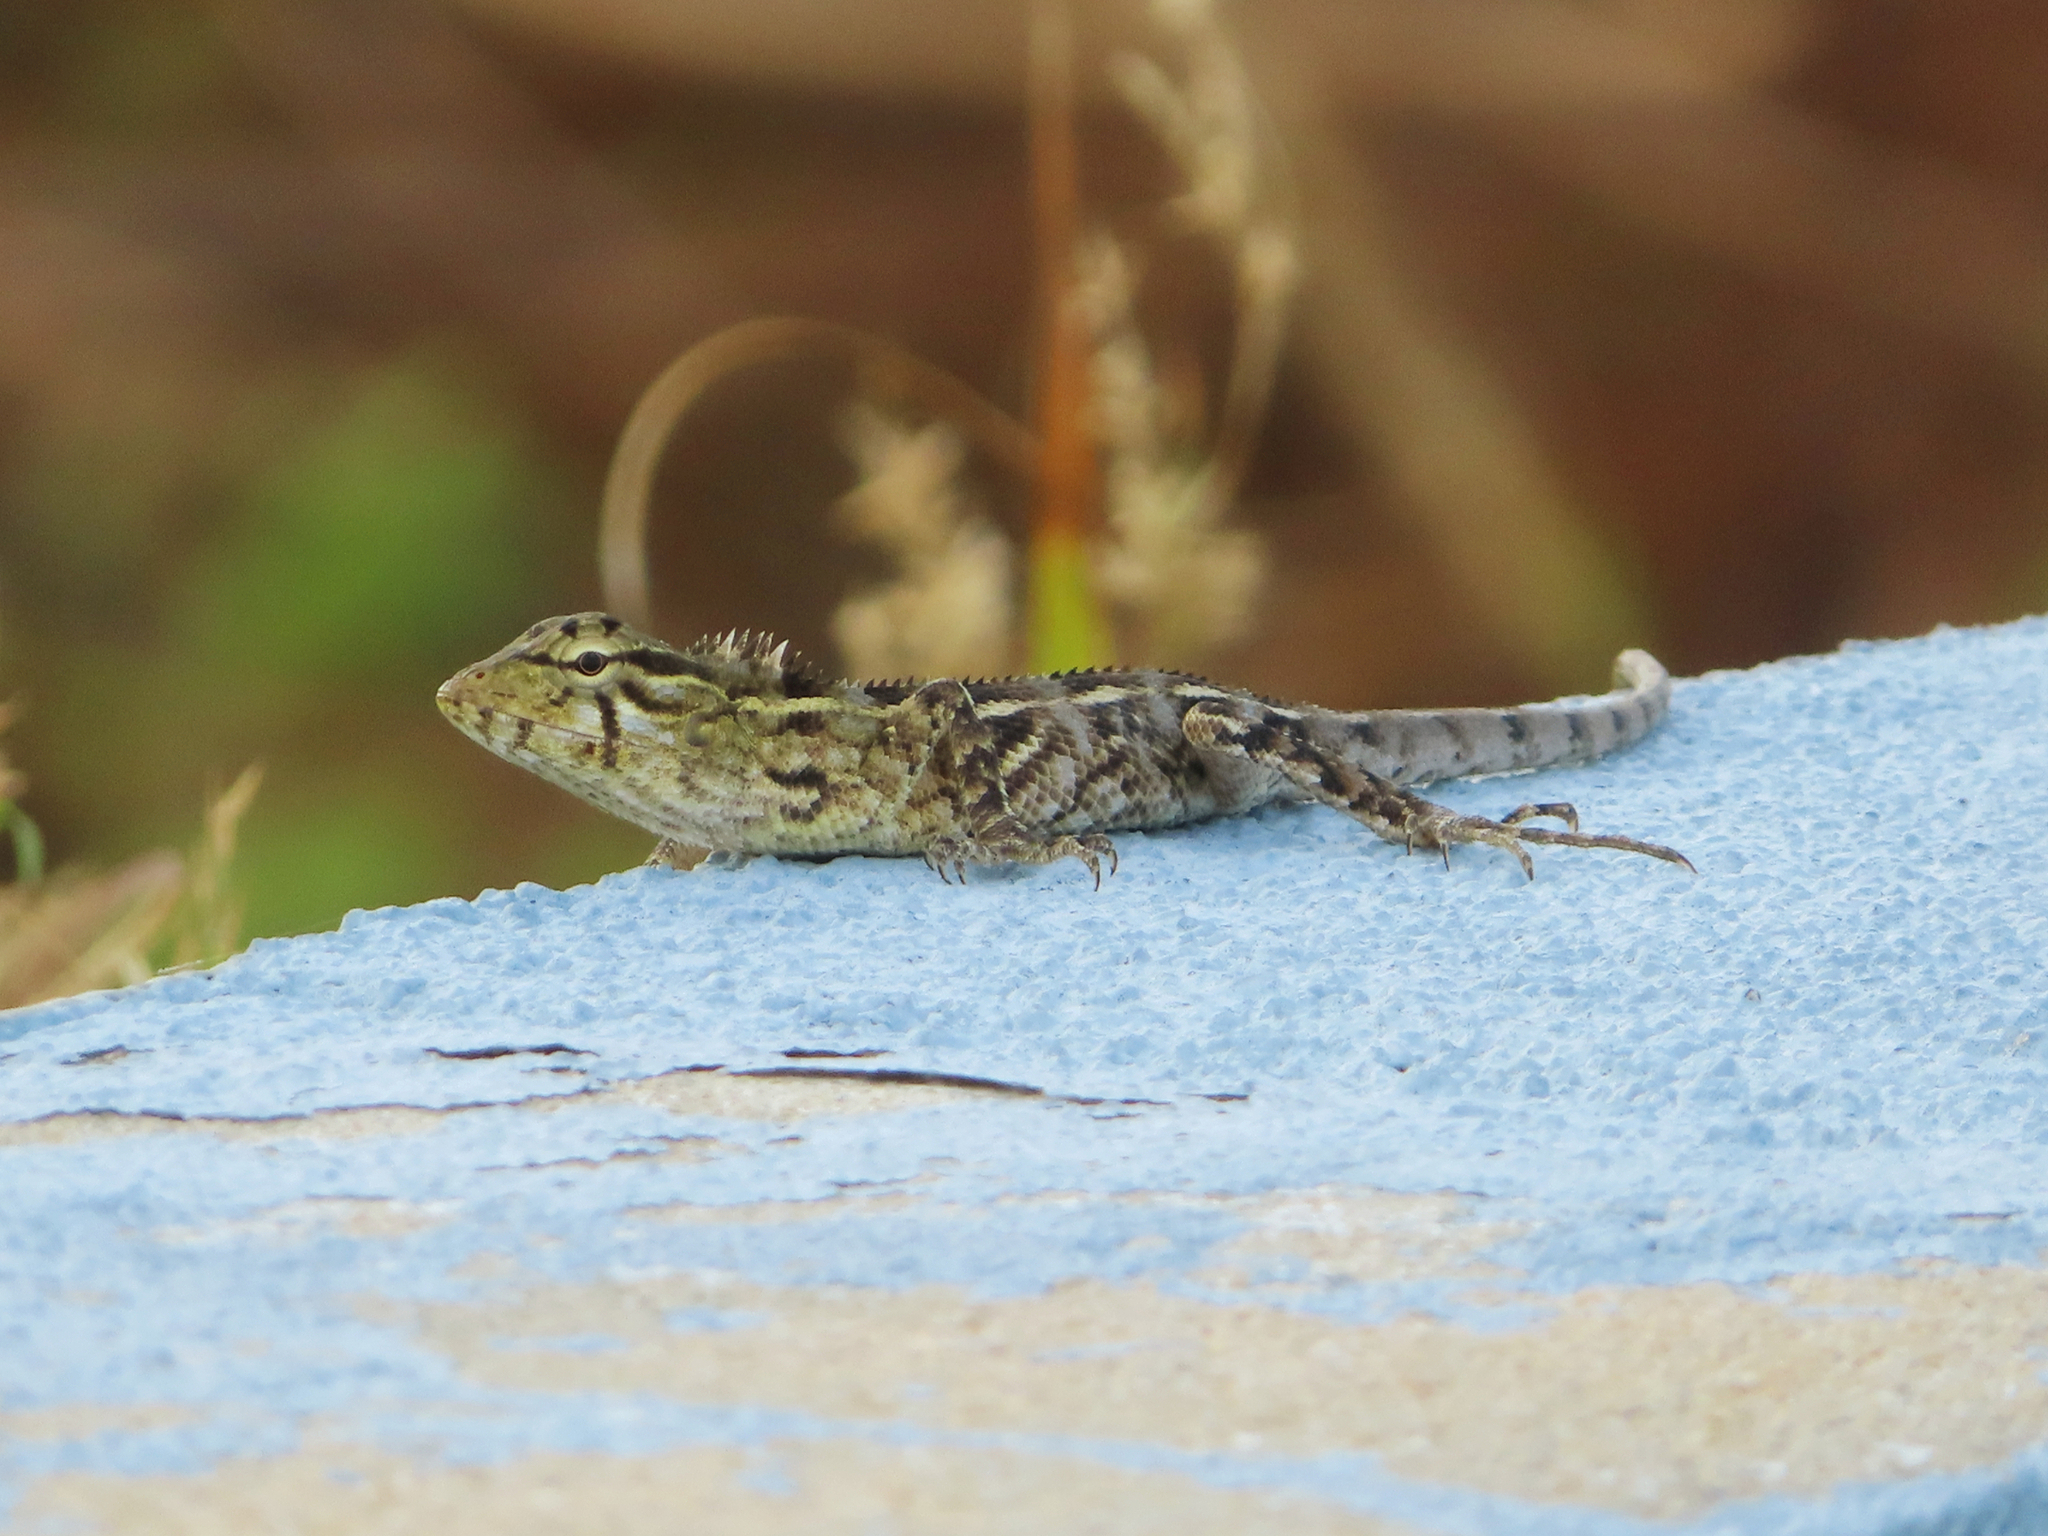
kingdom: Animalia
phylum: Chordata
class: Squamata
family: Agamidae
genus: Calotes
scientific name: Calotes versicolor
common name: Oriental garden lizard
